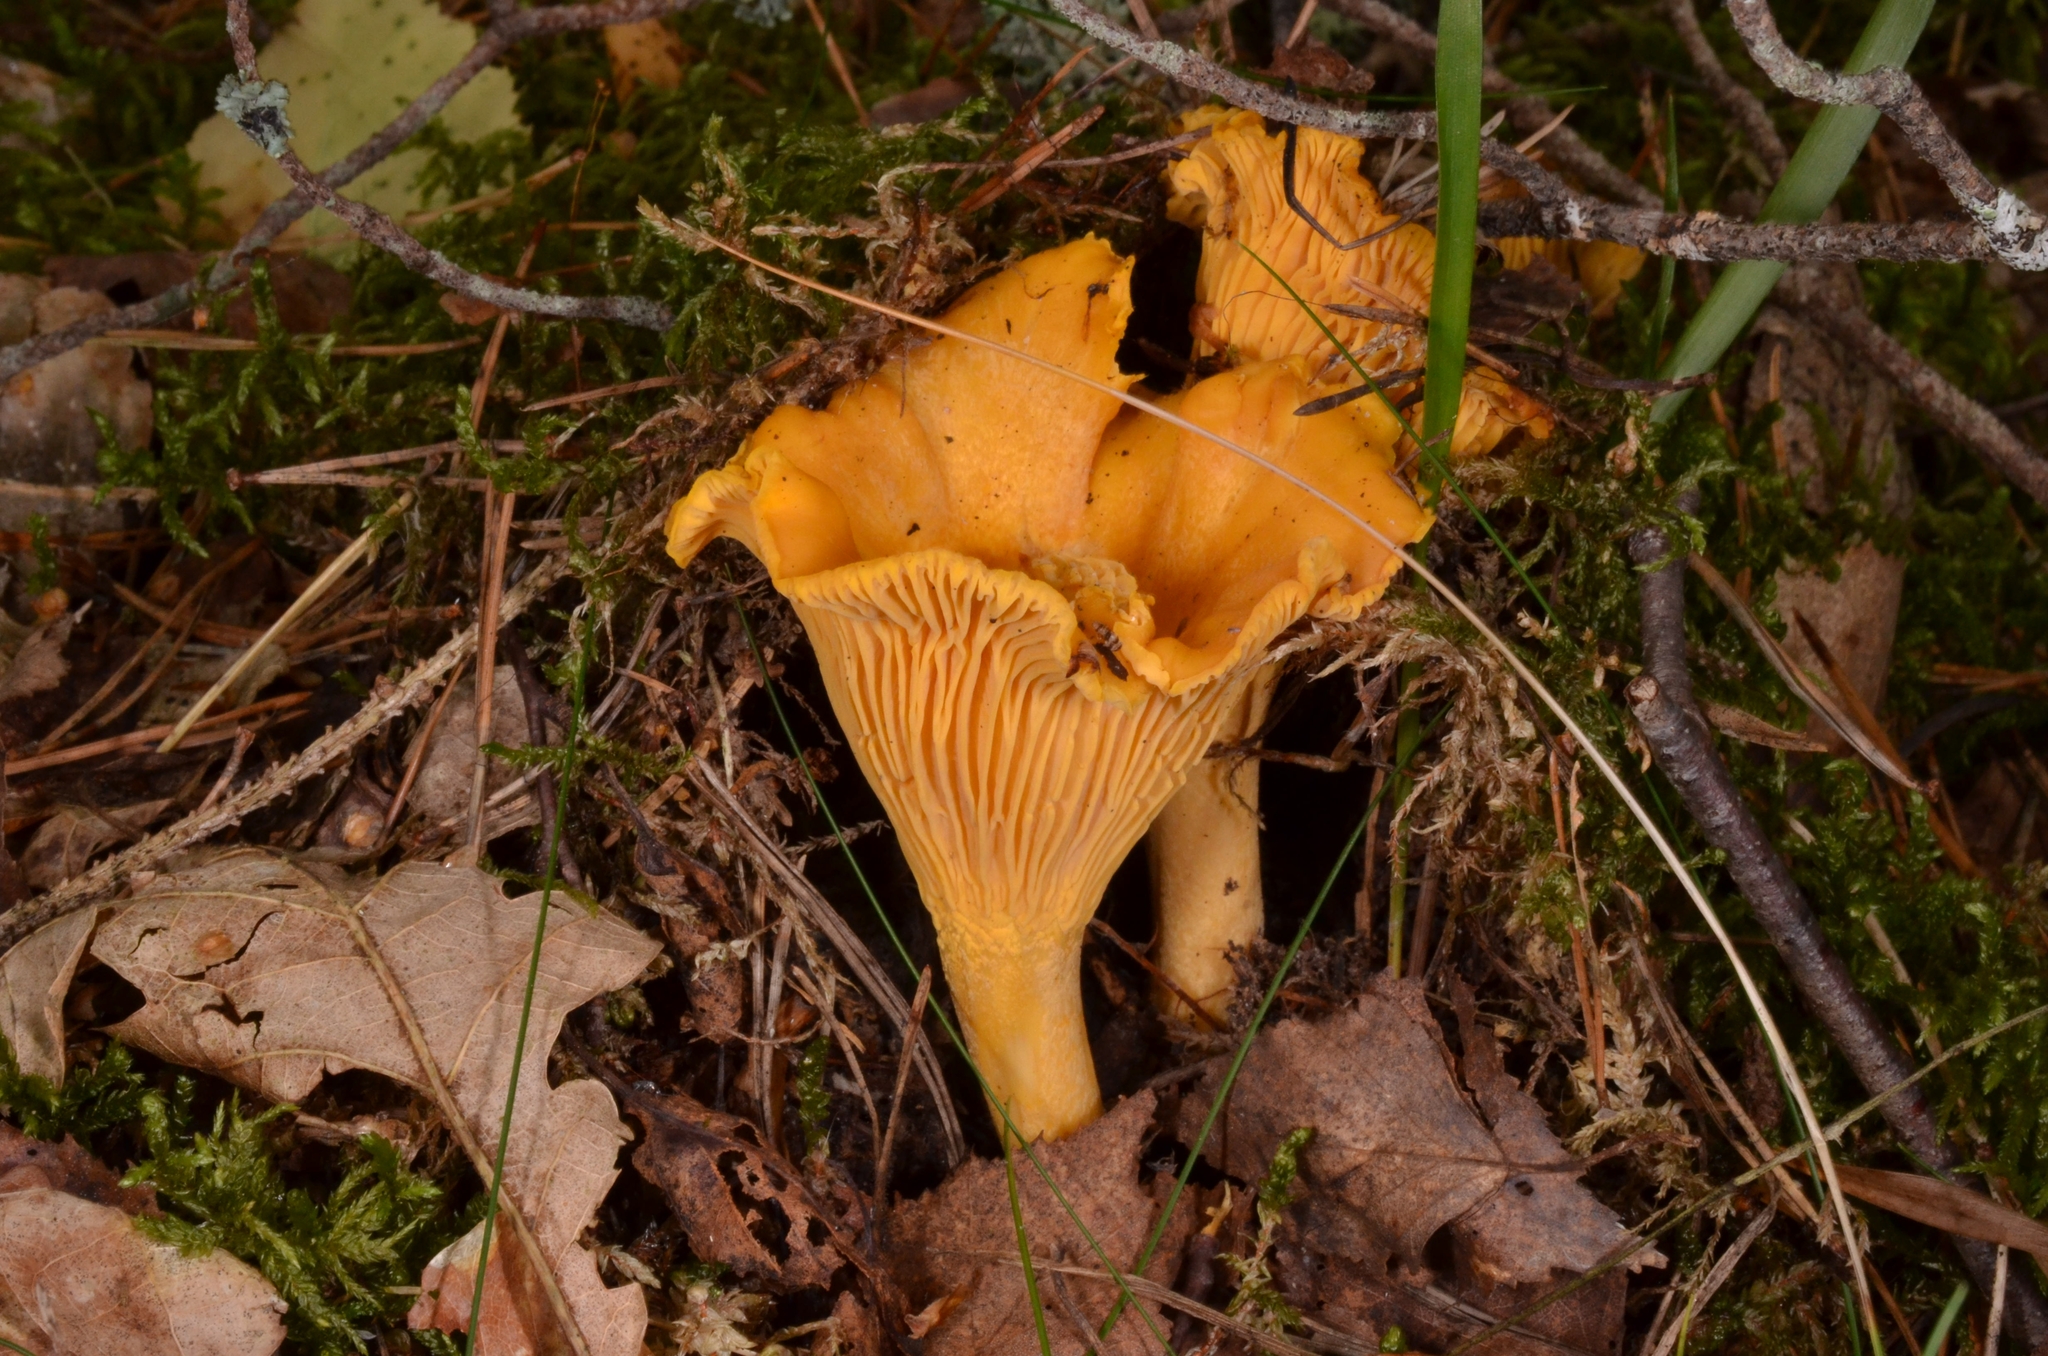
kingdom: Fungi
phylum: Basidiomycota
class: Agaricomycetes
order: Cantharellales
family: Hydnaceae
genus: Cantharellus
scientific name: Cantharellus cibarius
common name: Chanterelle
